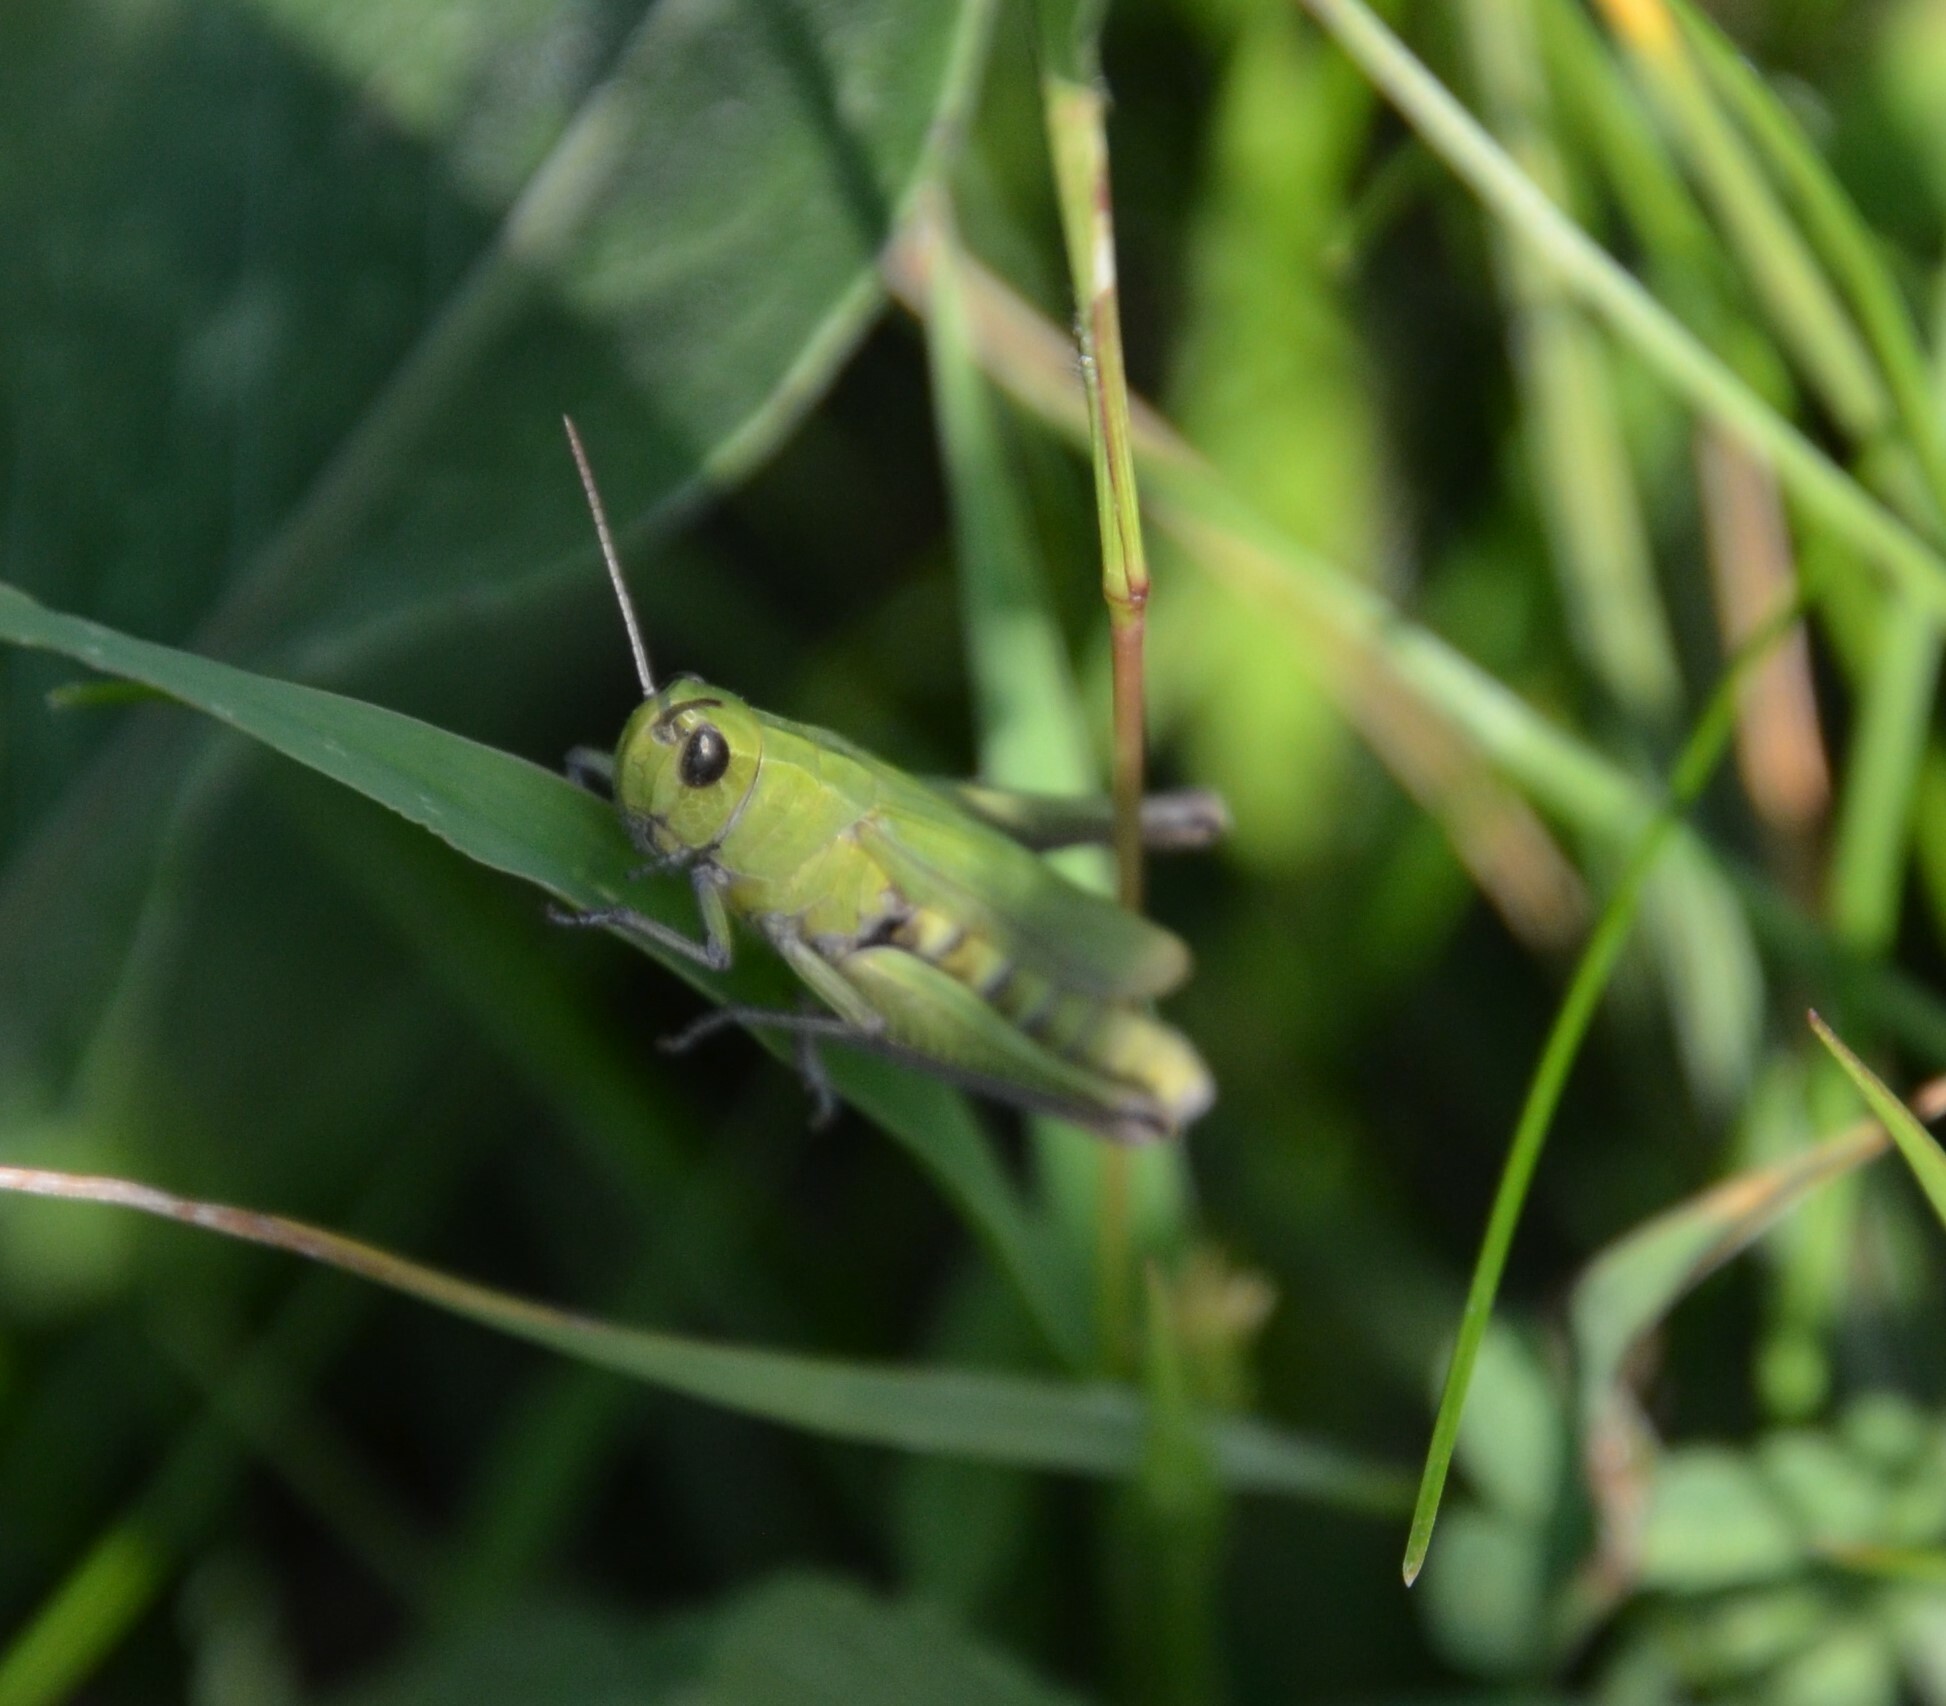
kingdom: Animalia
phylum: Arthropoda
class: Insecta
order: Orthoptera
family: Acrididae
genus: Chorthippus
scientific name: Chorthippus dorsatus
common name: Steppe grasshopper
